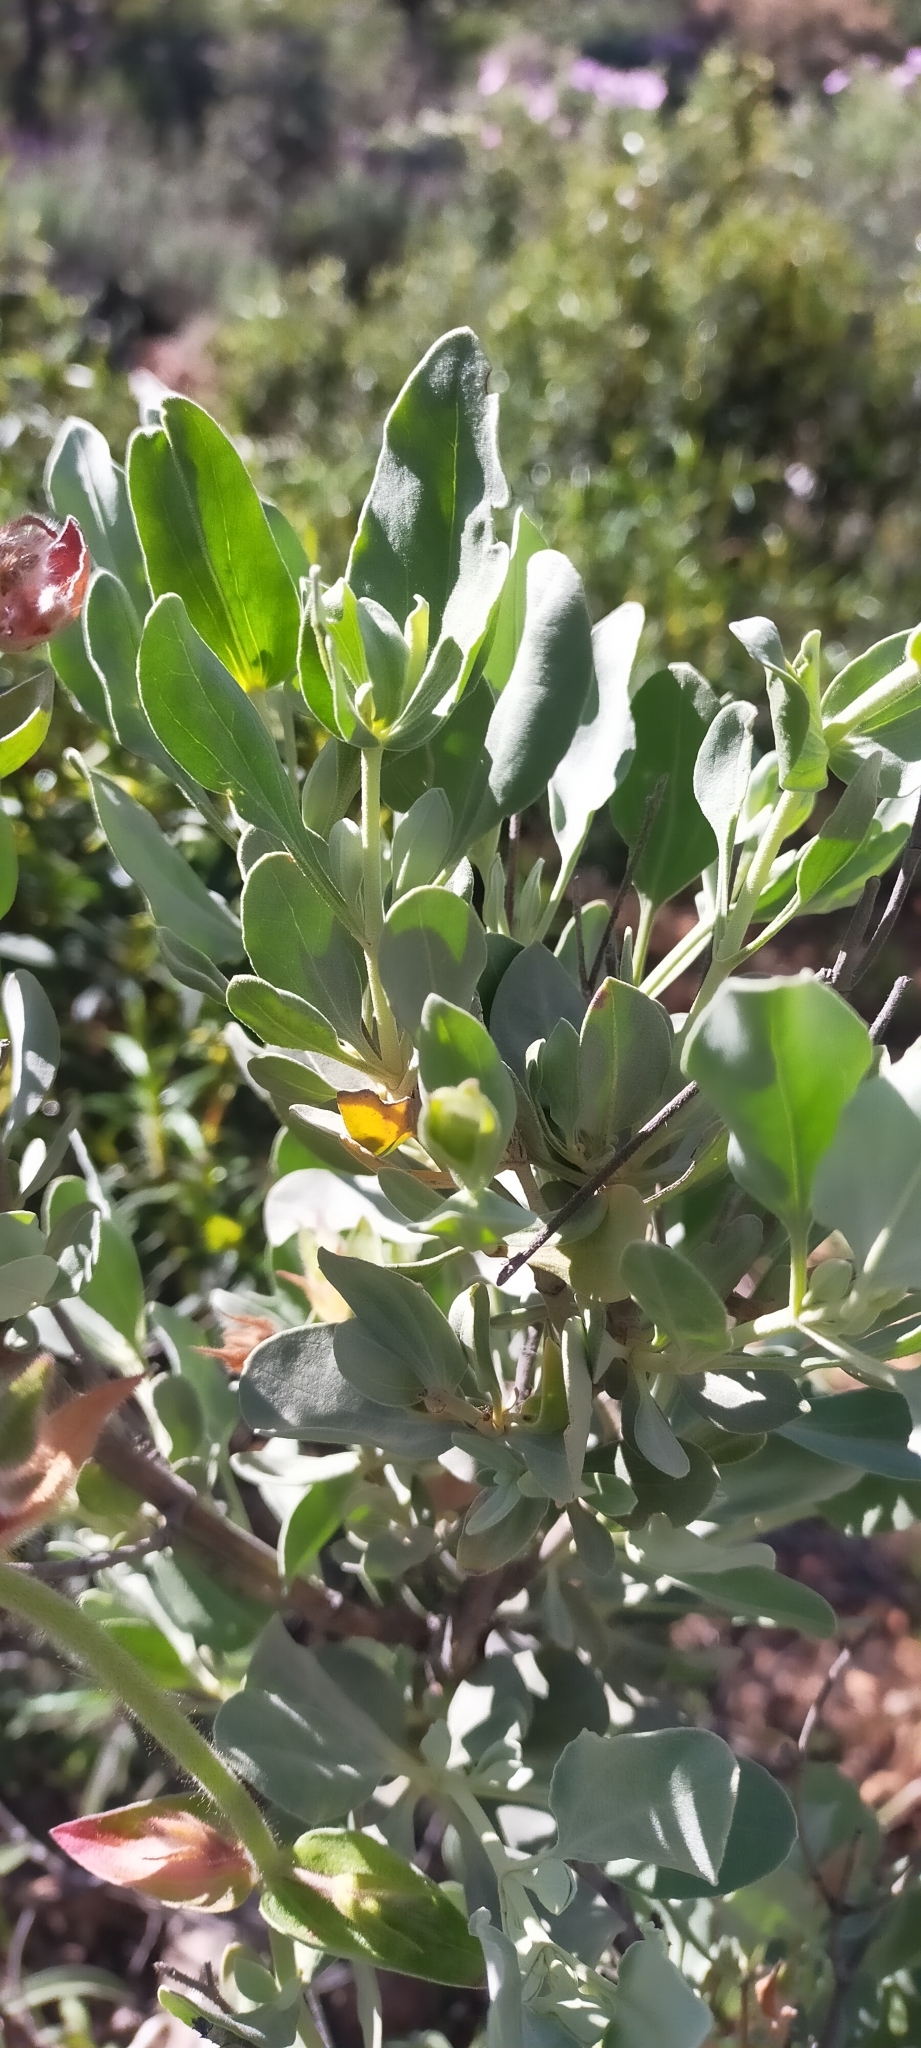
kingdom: Plantae
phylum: Tracheophyta
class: Magnoliopsida
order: Malvales
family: Cistaceae
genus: Halimium
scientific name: Halimium atriplicifolium
